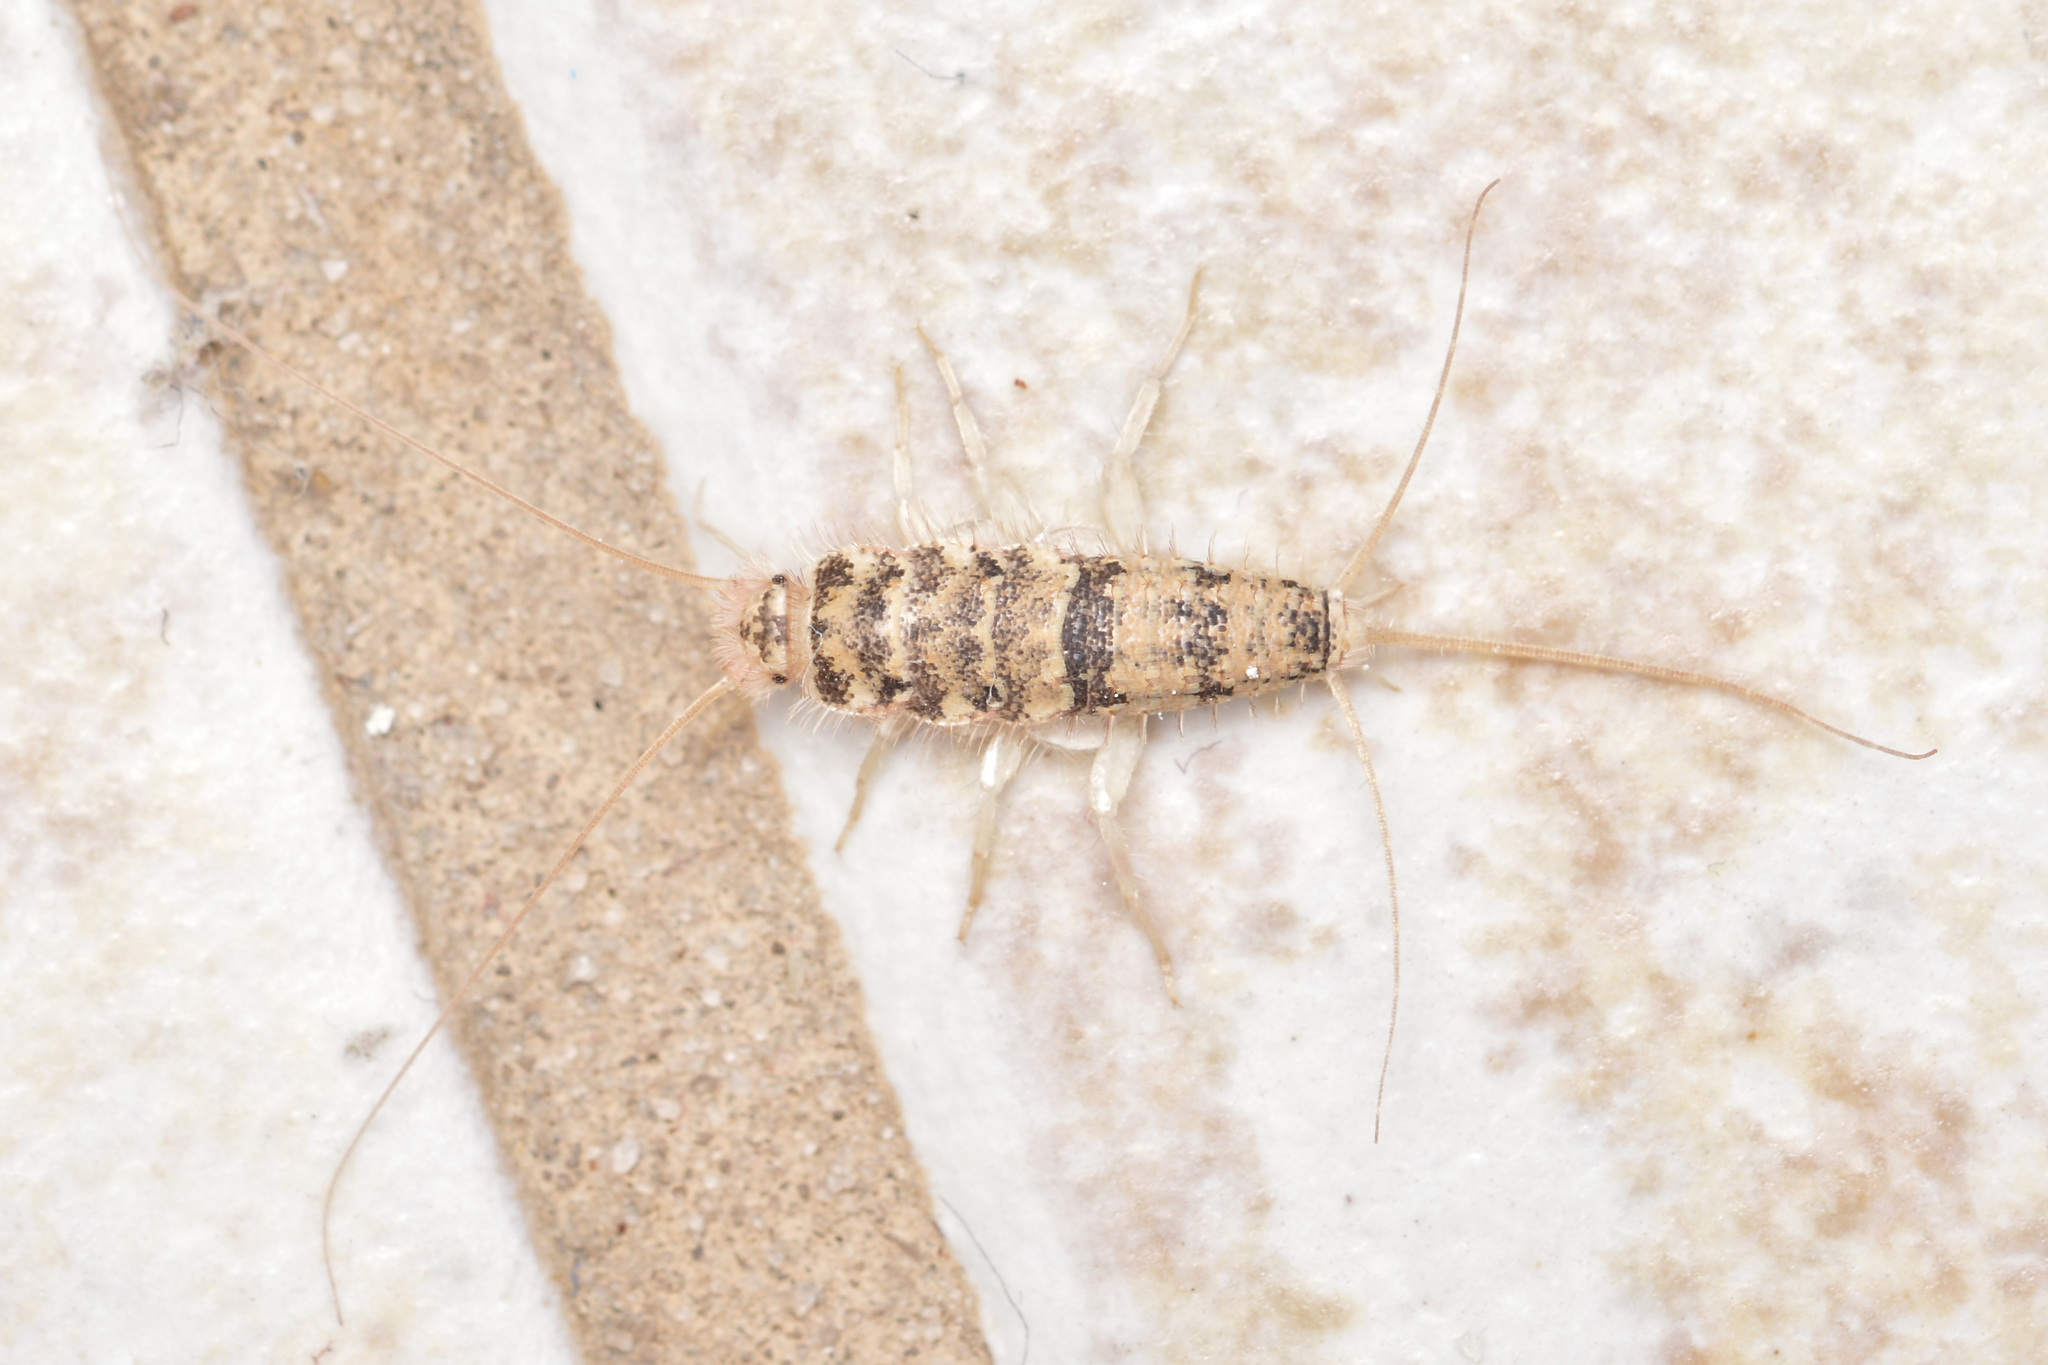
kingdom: Animalia
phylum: Arthropoda
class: Insecta
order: Zygentoma
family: Lepismatidae
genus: Thermobia
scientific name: Thermobia domestica
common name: Firebrat
